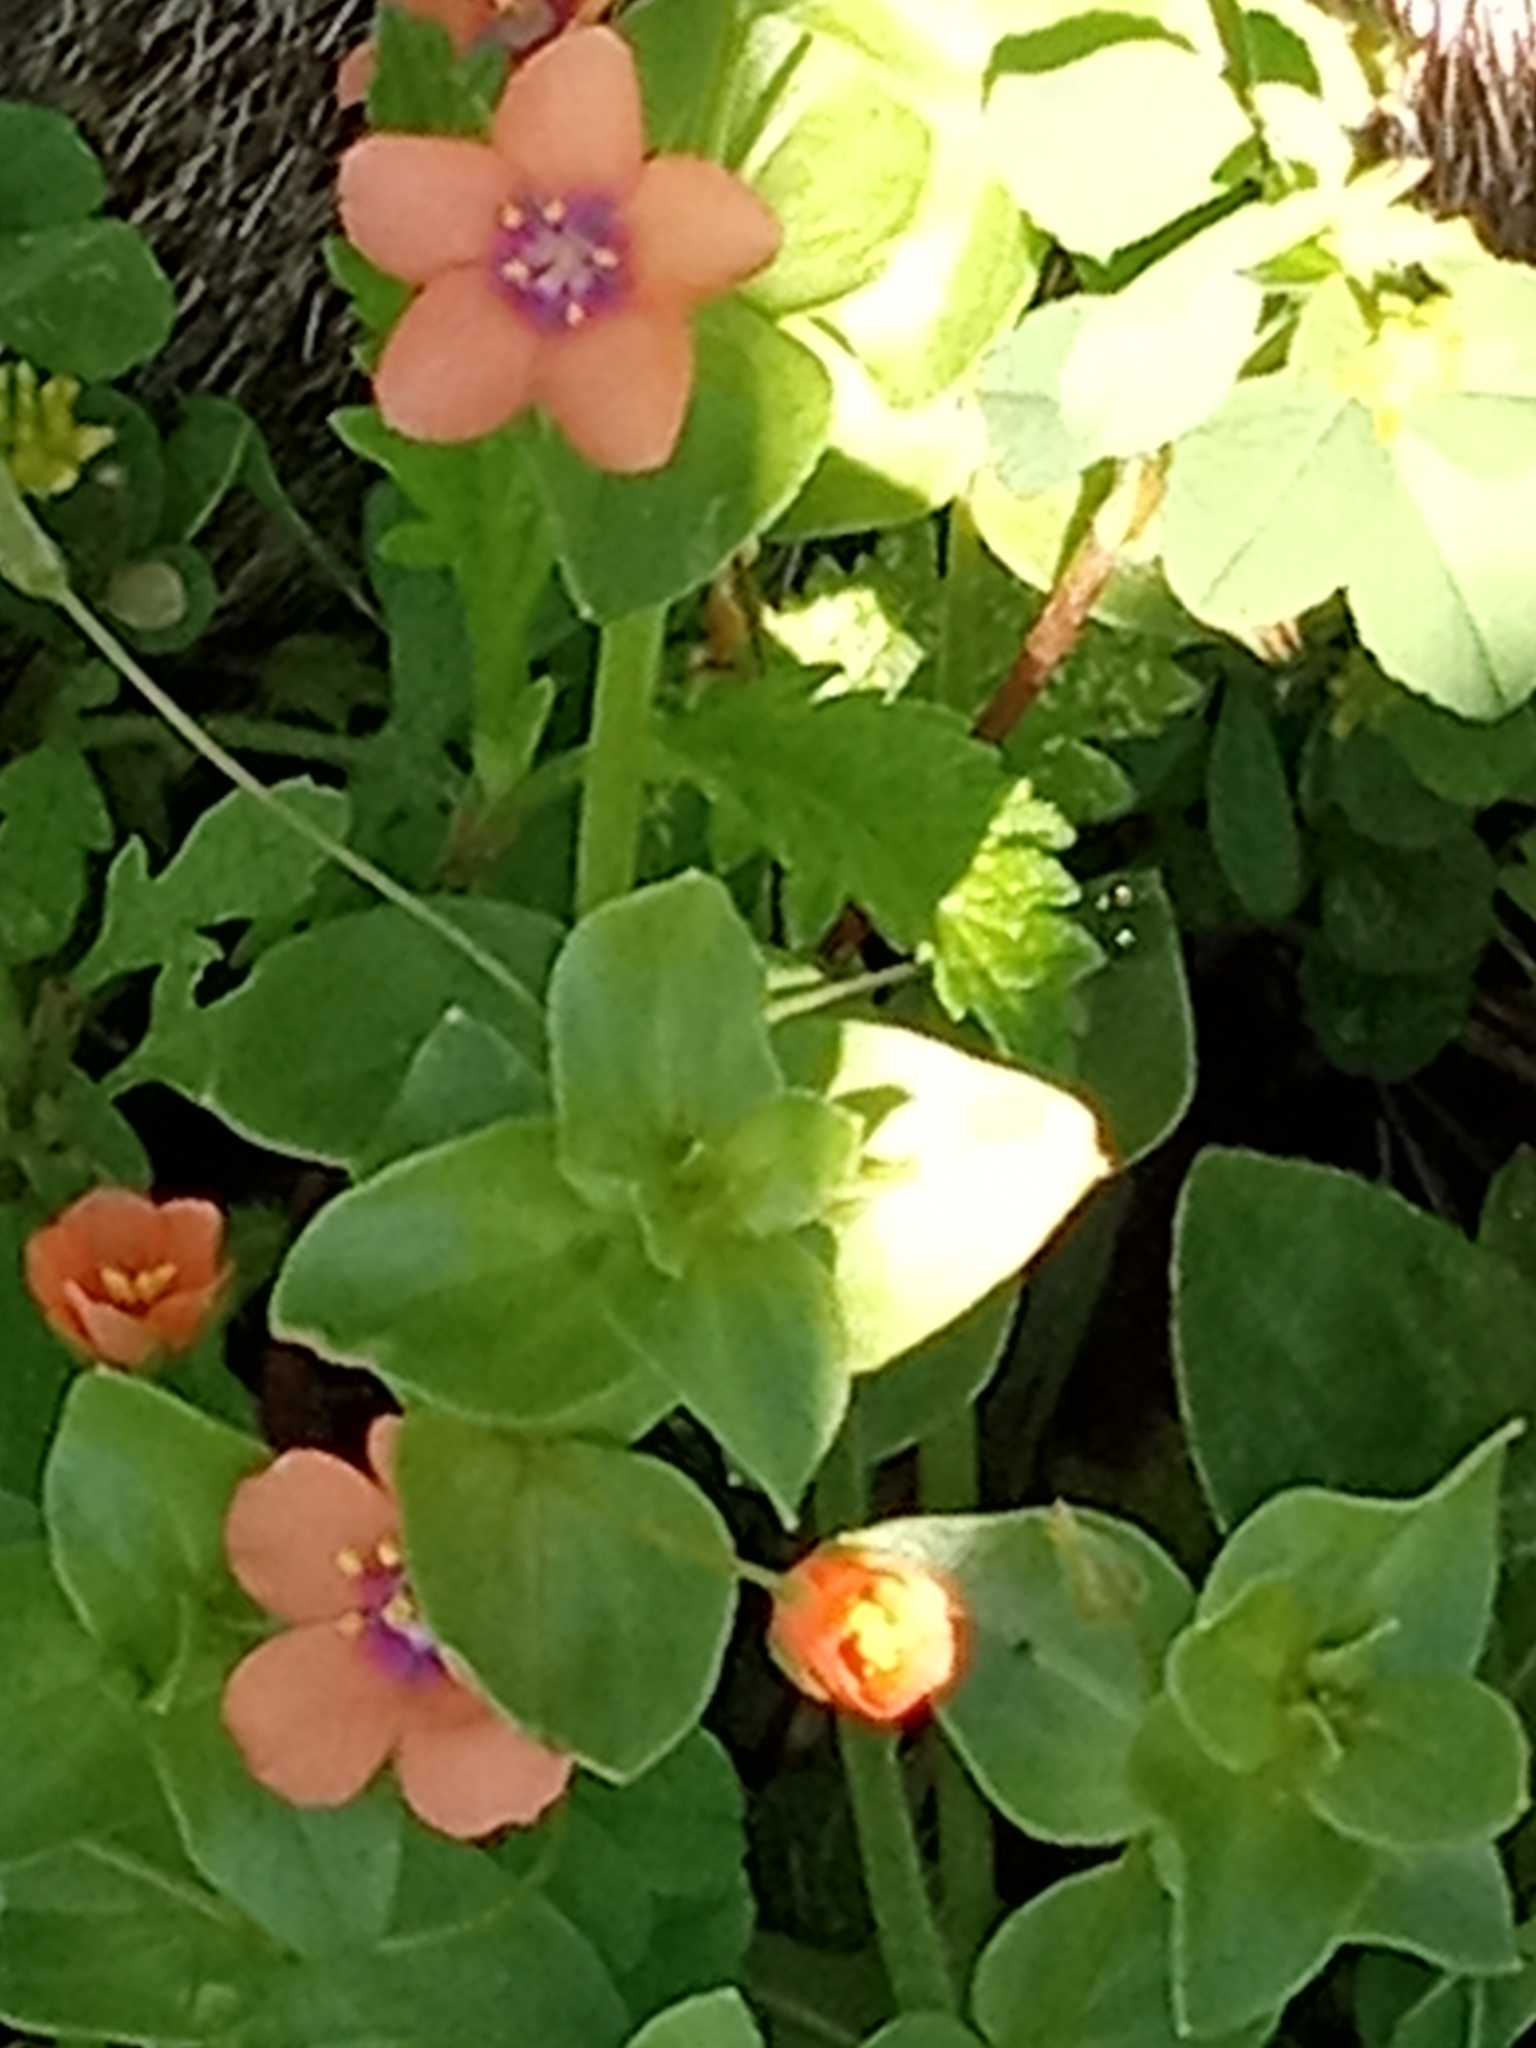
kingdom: Plantae
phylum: Tracheophyta
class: Magnoliopsida
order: Ericales
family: Primulaceae
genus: Lysimachia
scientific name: Lysimachia arvensis
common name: Scarlet pimpernel
